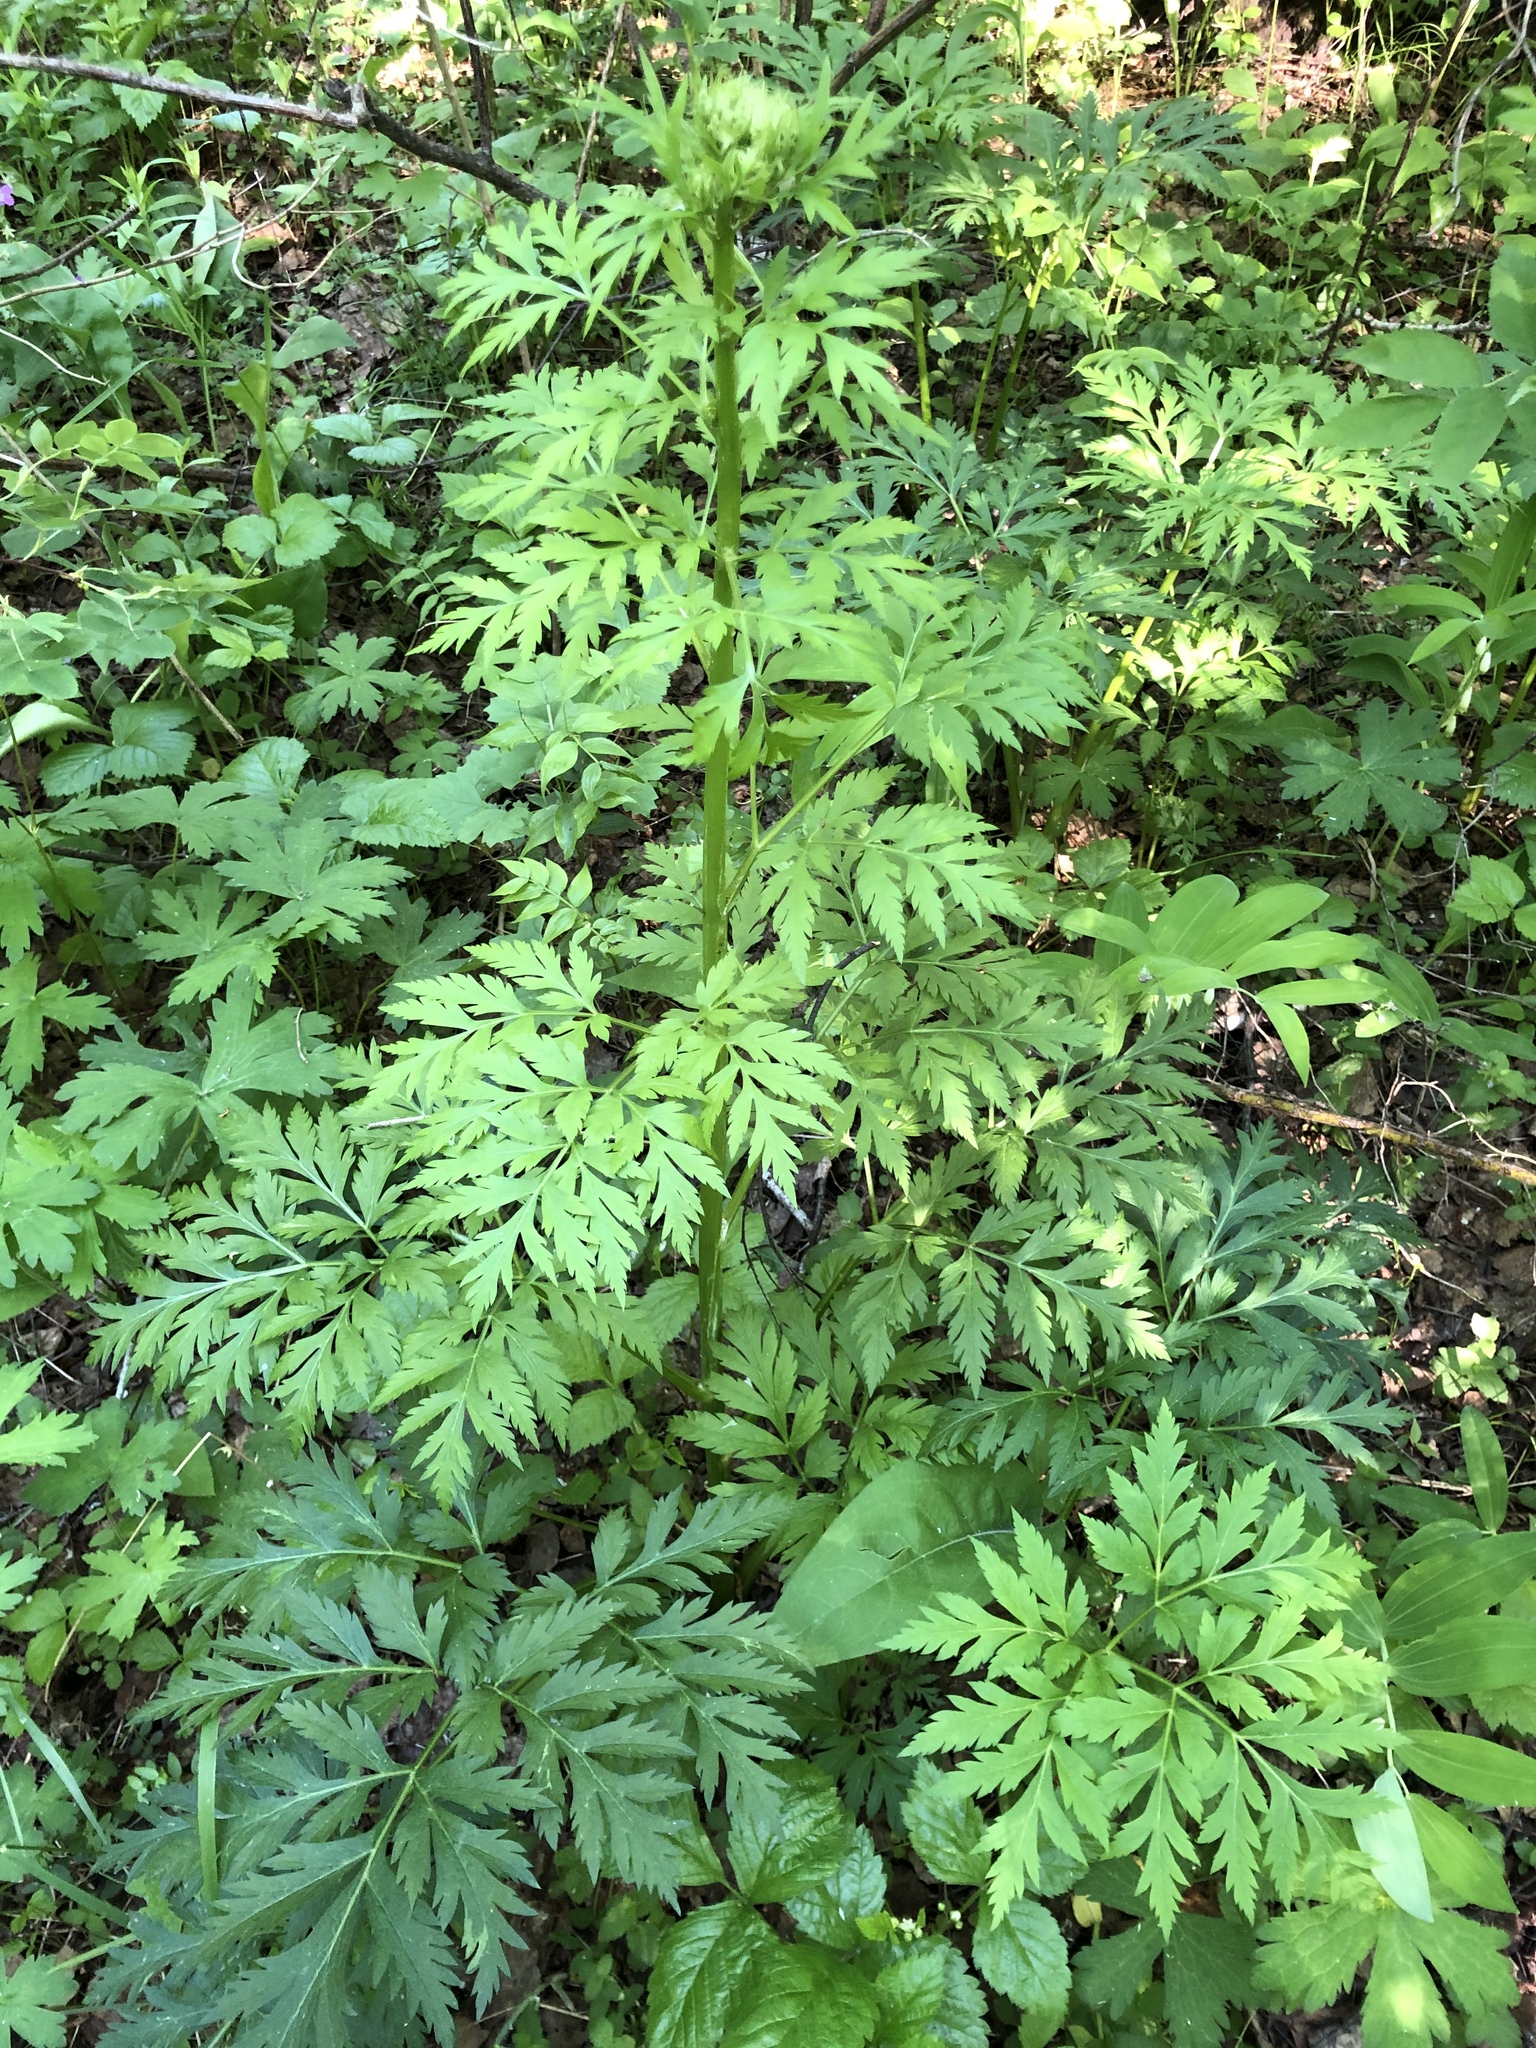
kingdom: Plantae
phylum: Tracheophyta
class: Magnoliopsida
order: Apiales
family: Apiaceae
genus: Pleurospermum
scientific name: Pleurospermum uralense
